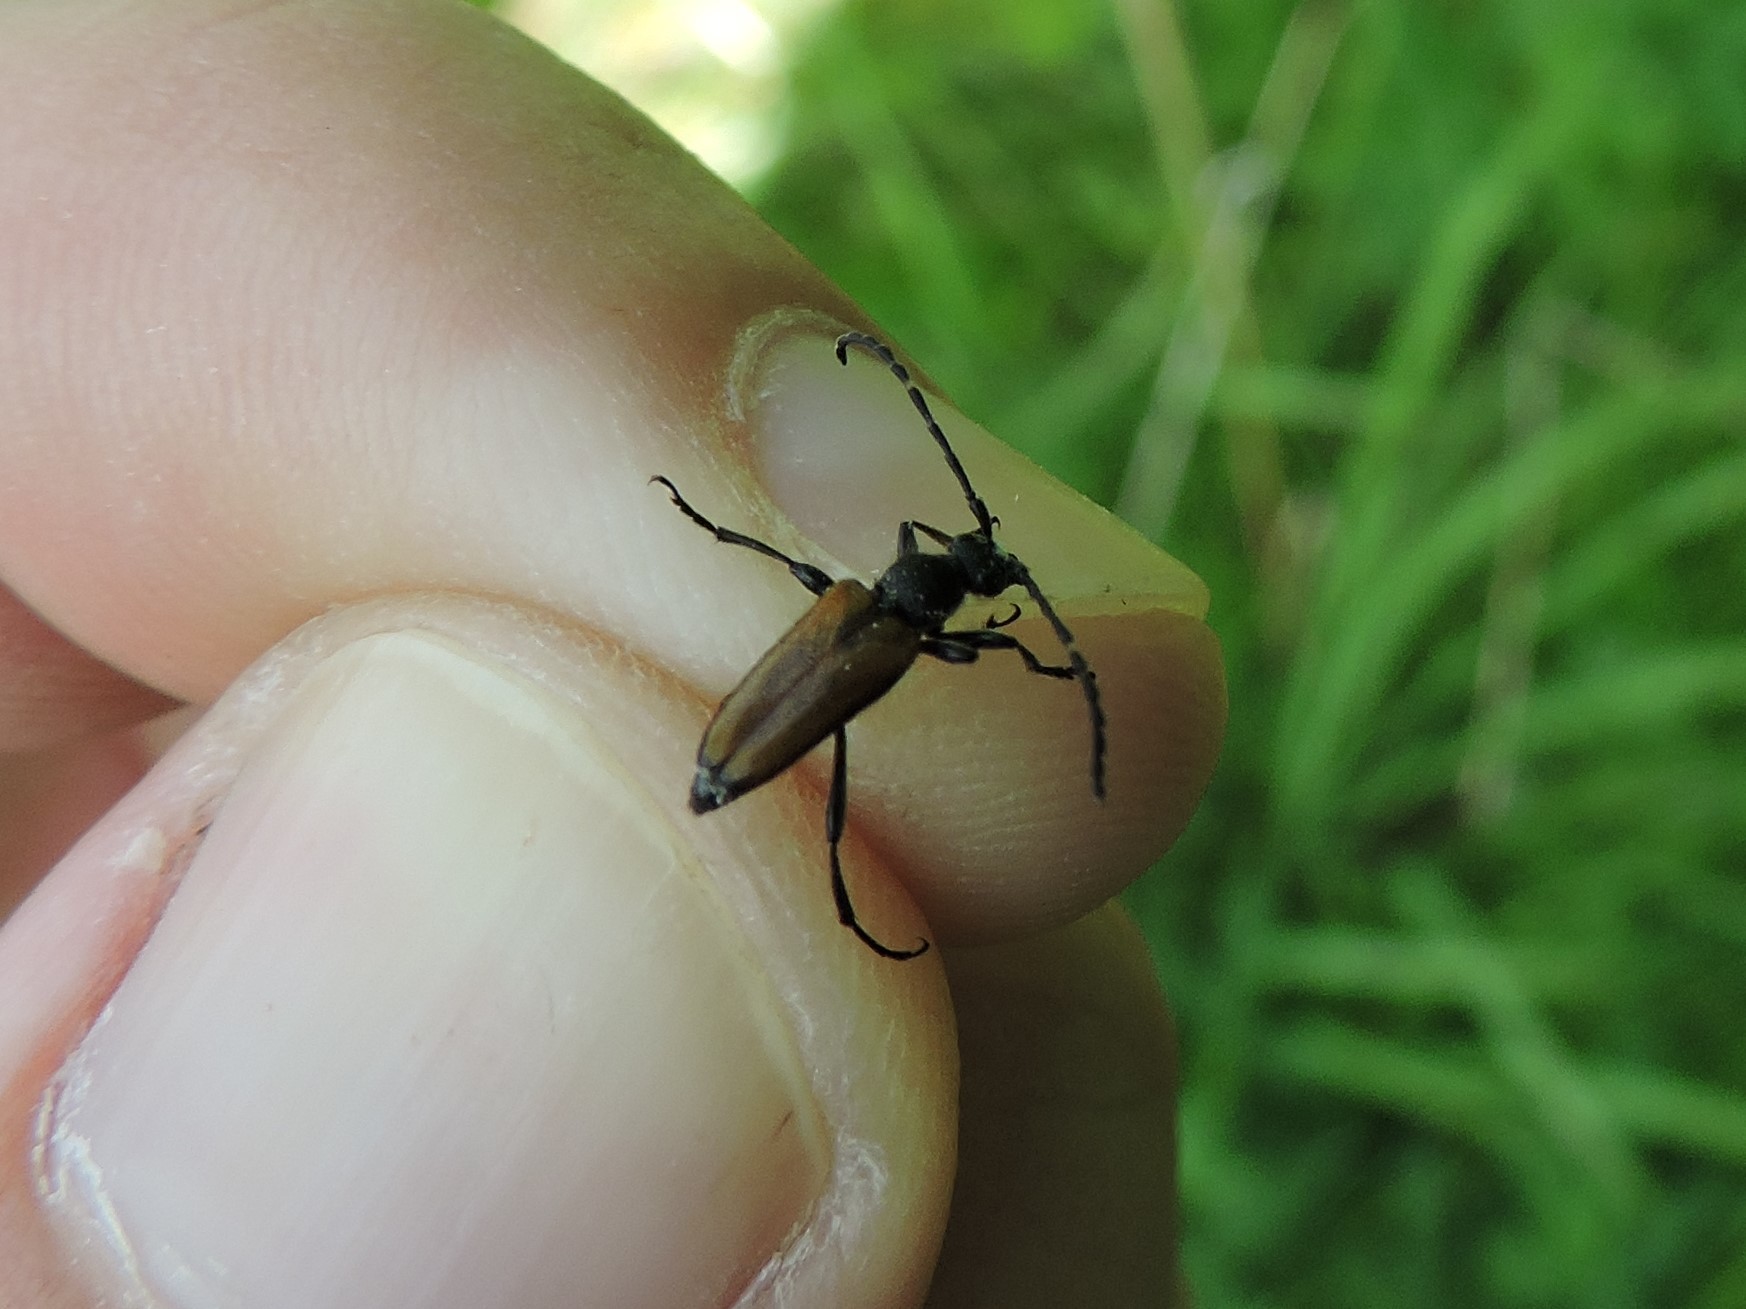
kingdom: Animalia
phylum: Arthropoda
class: Insecta
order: Coleoptera
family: Cerambycidae
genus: Paracorymbia
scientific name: Paracorymbia maculicornis
